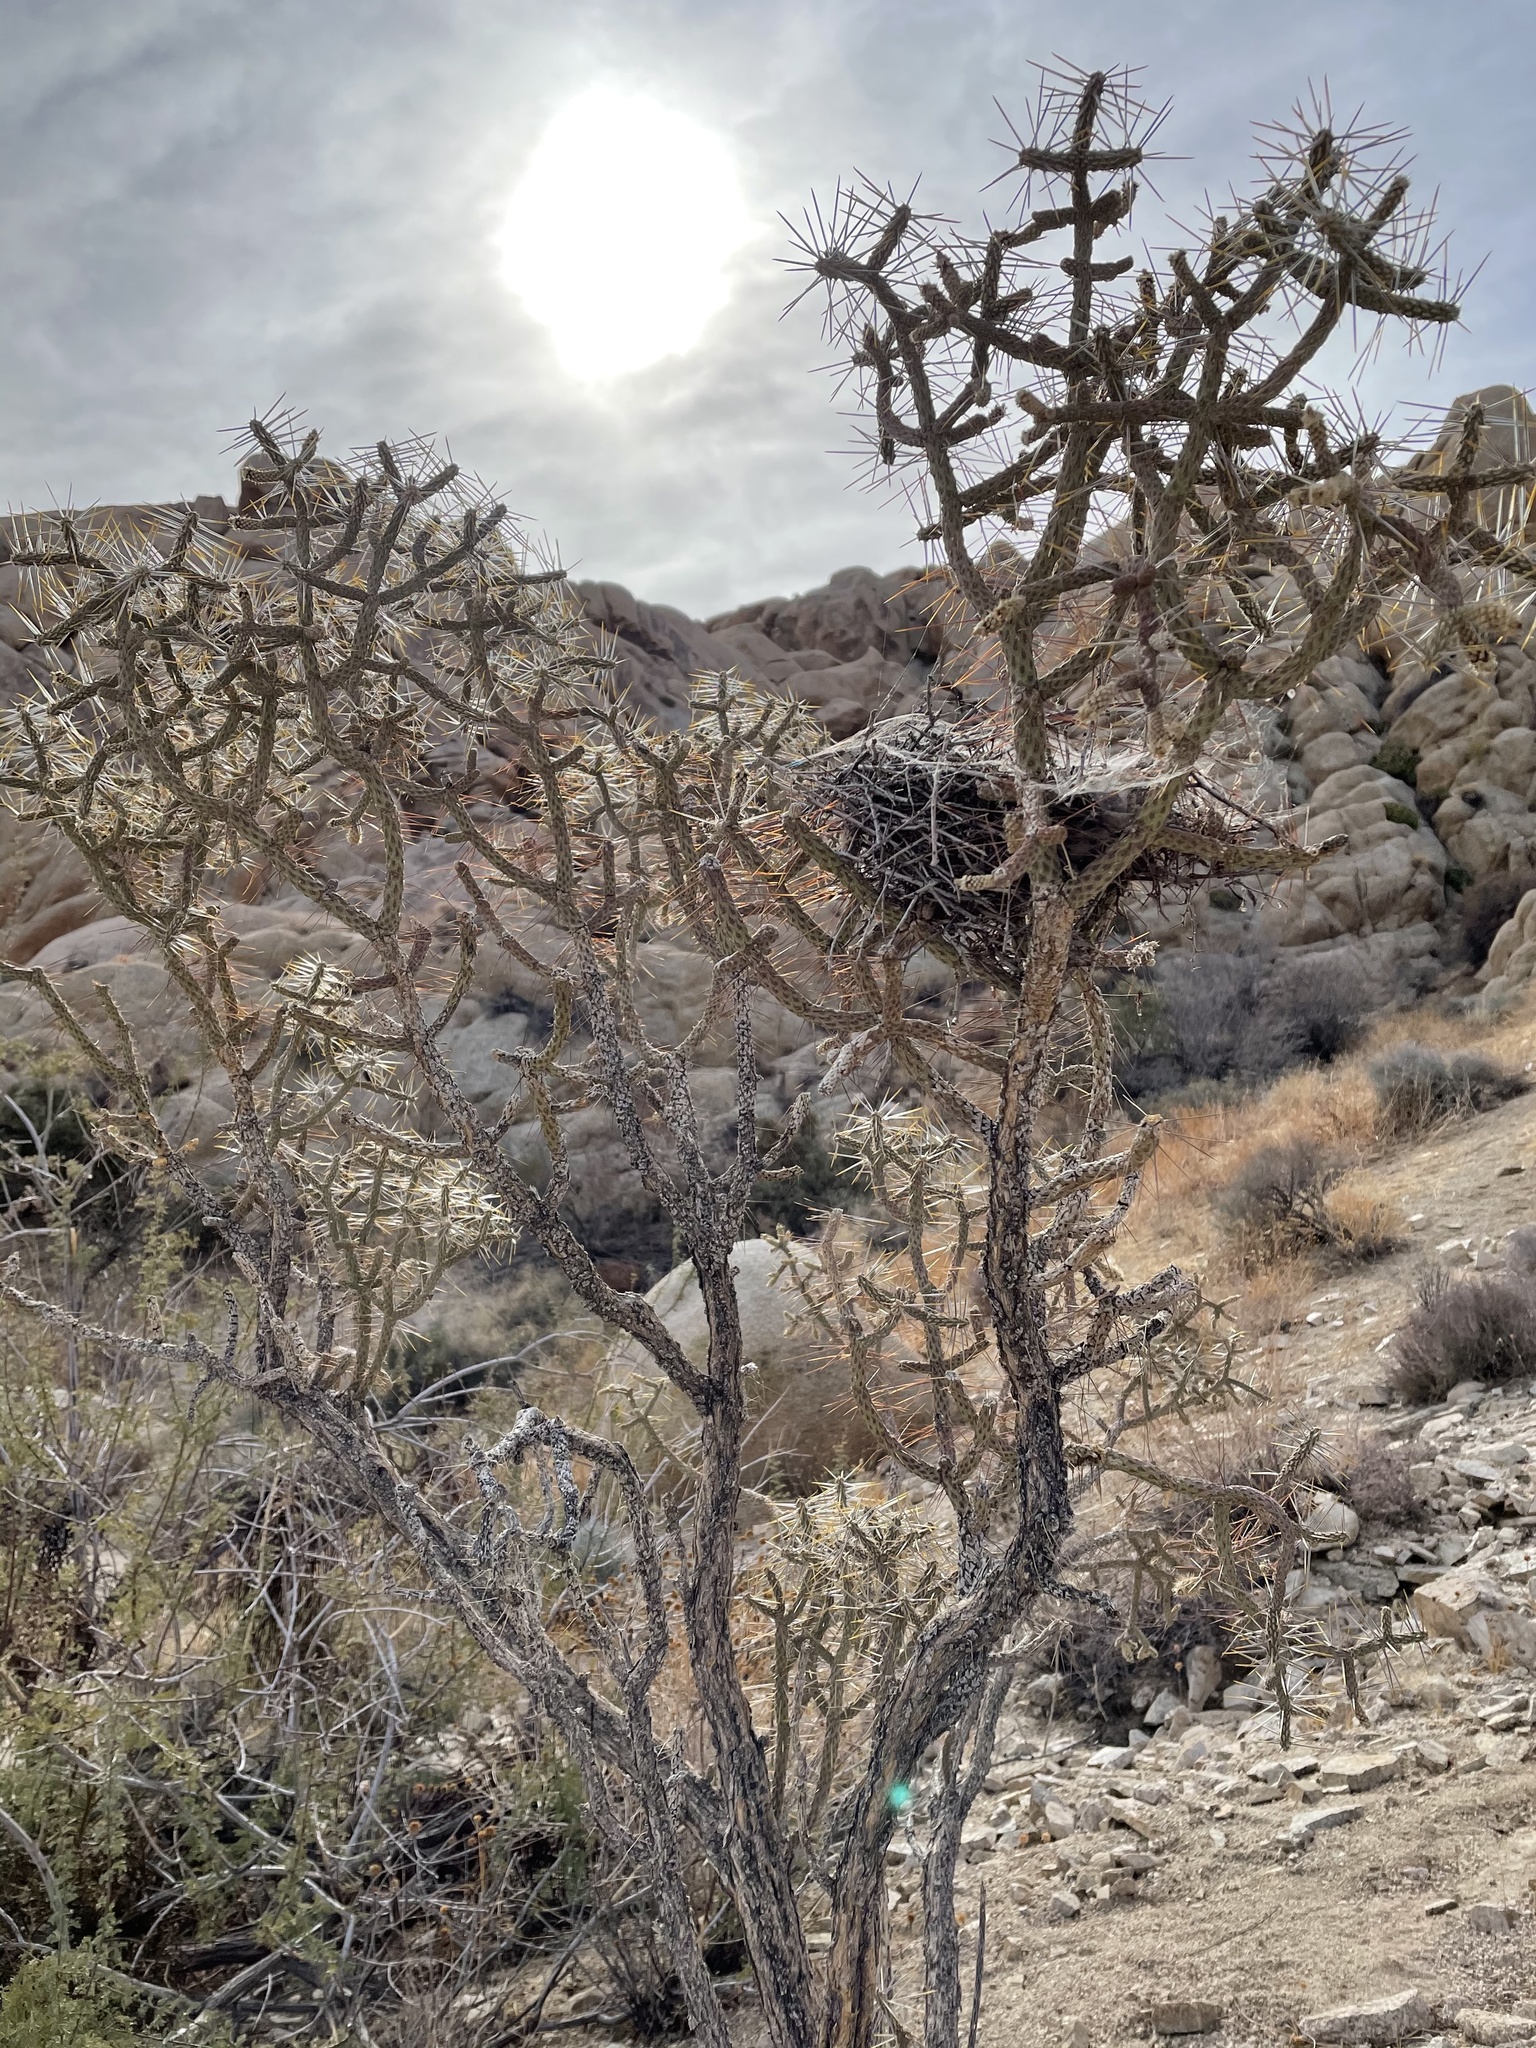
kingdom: Plantae
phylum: Tracheophyta
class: Magnoliopsida
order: Caryophyllales
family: Cactaceae
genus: Cylindropuntia
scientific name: Cylindropuntia ramosissima
